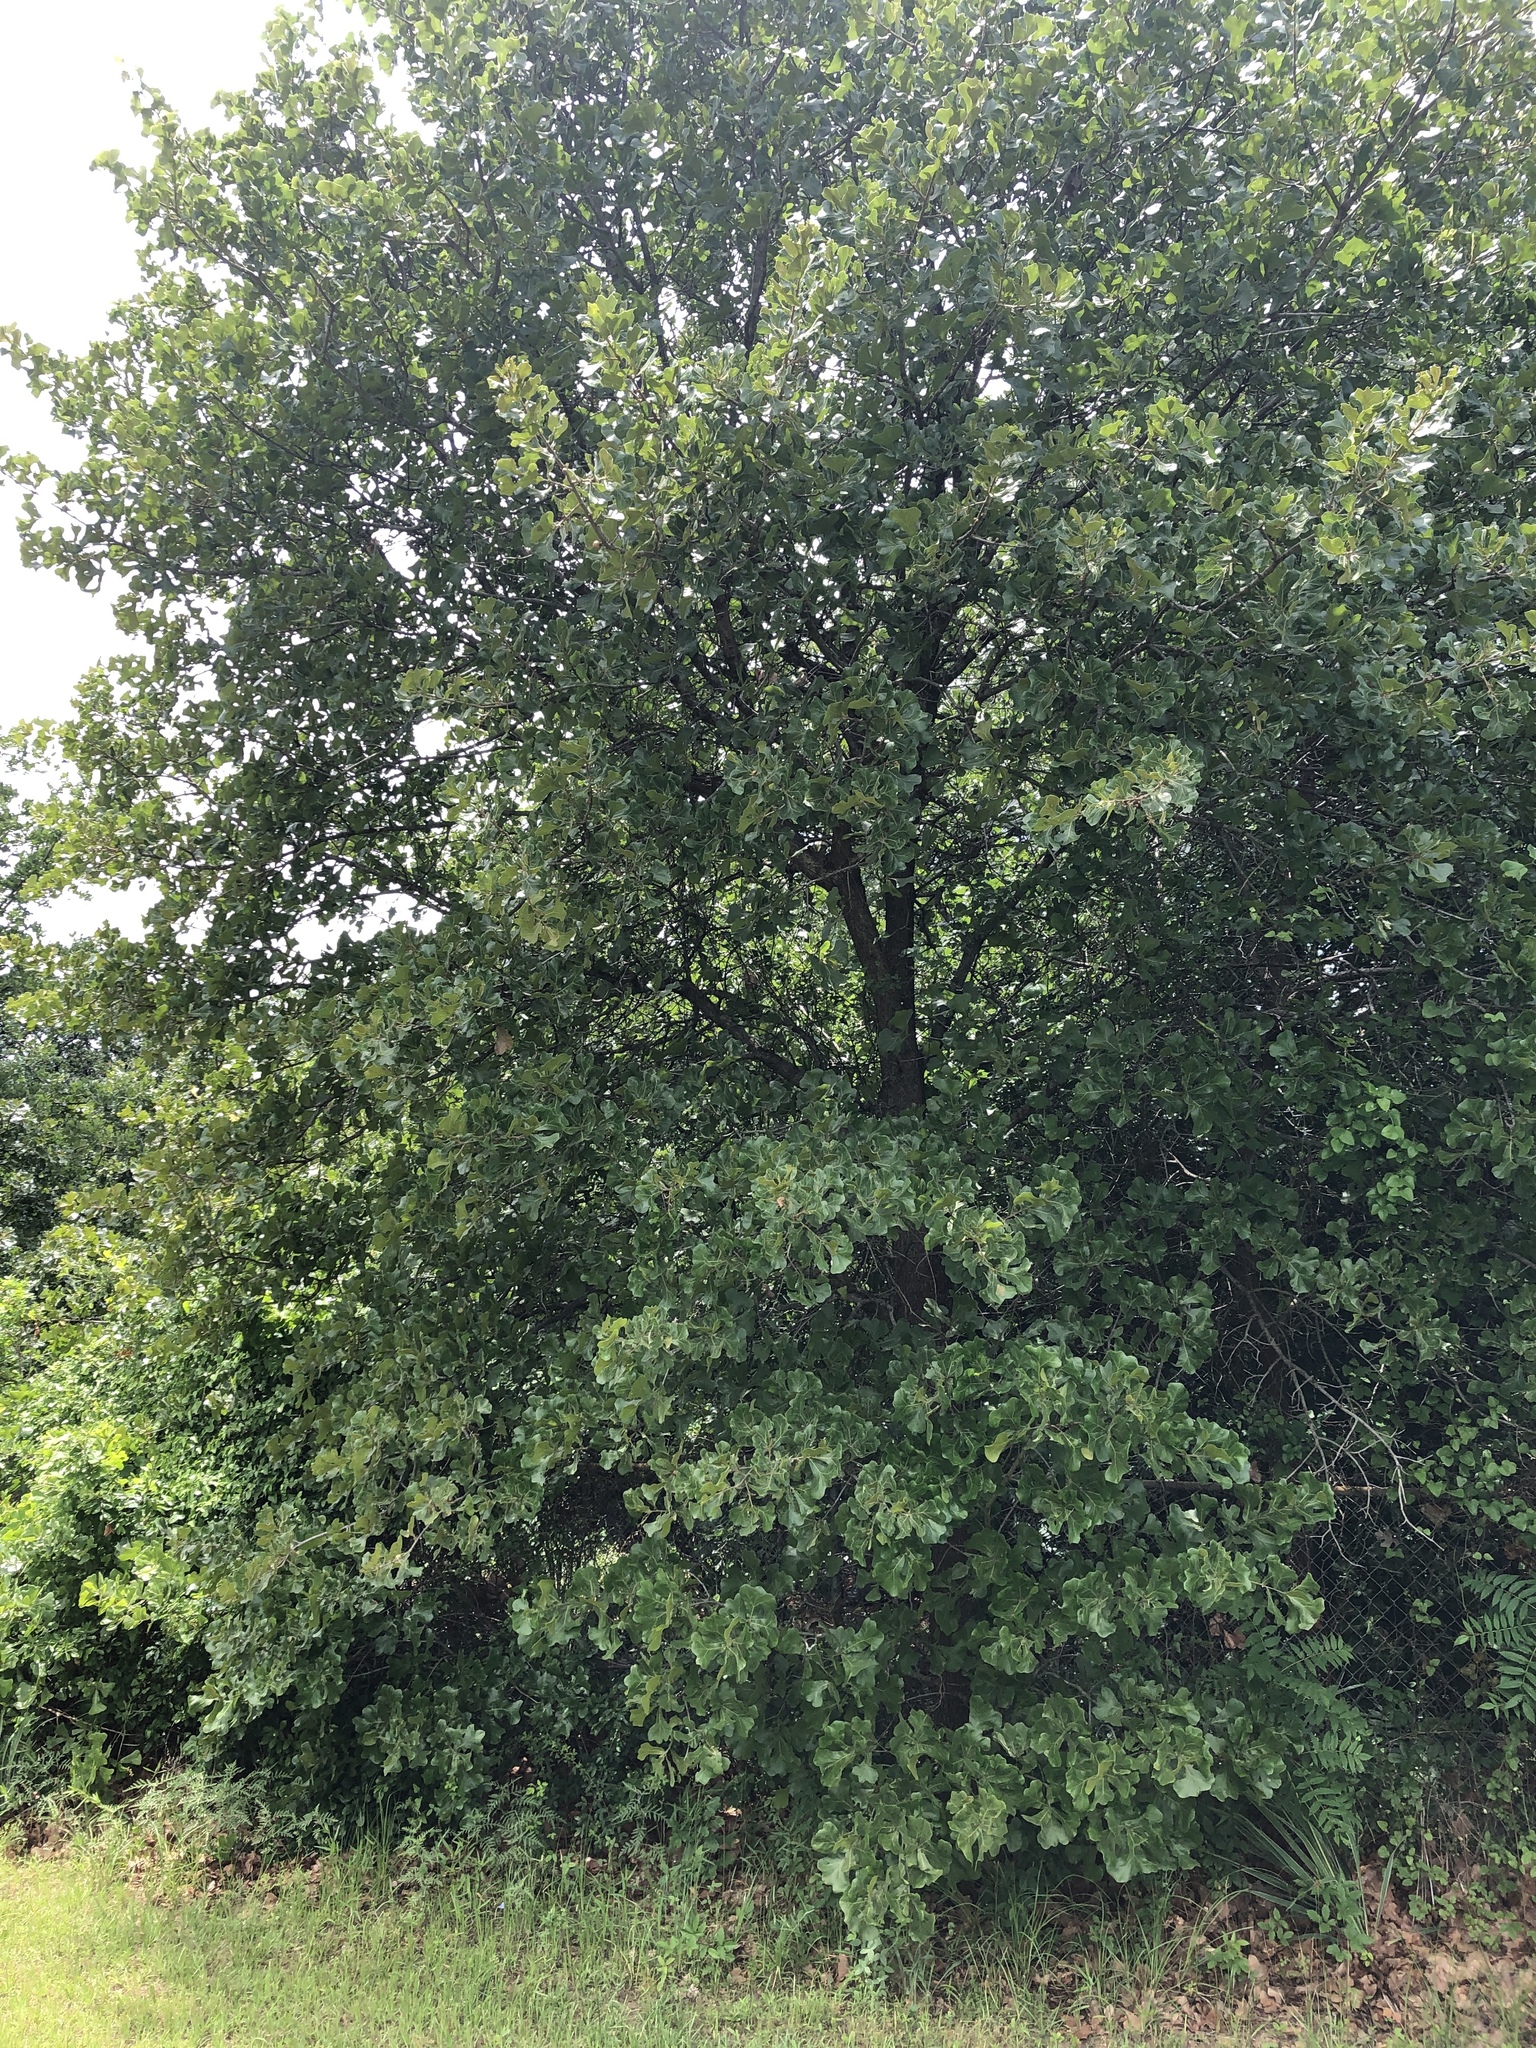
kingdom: Plantae
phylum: Tracheophyta
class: Magnoliopsida
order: Fagales
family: Fagaceae
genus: Quercus
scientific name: Quercus marilandica
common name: Blackjack oak
